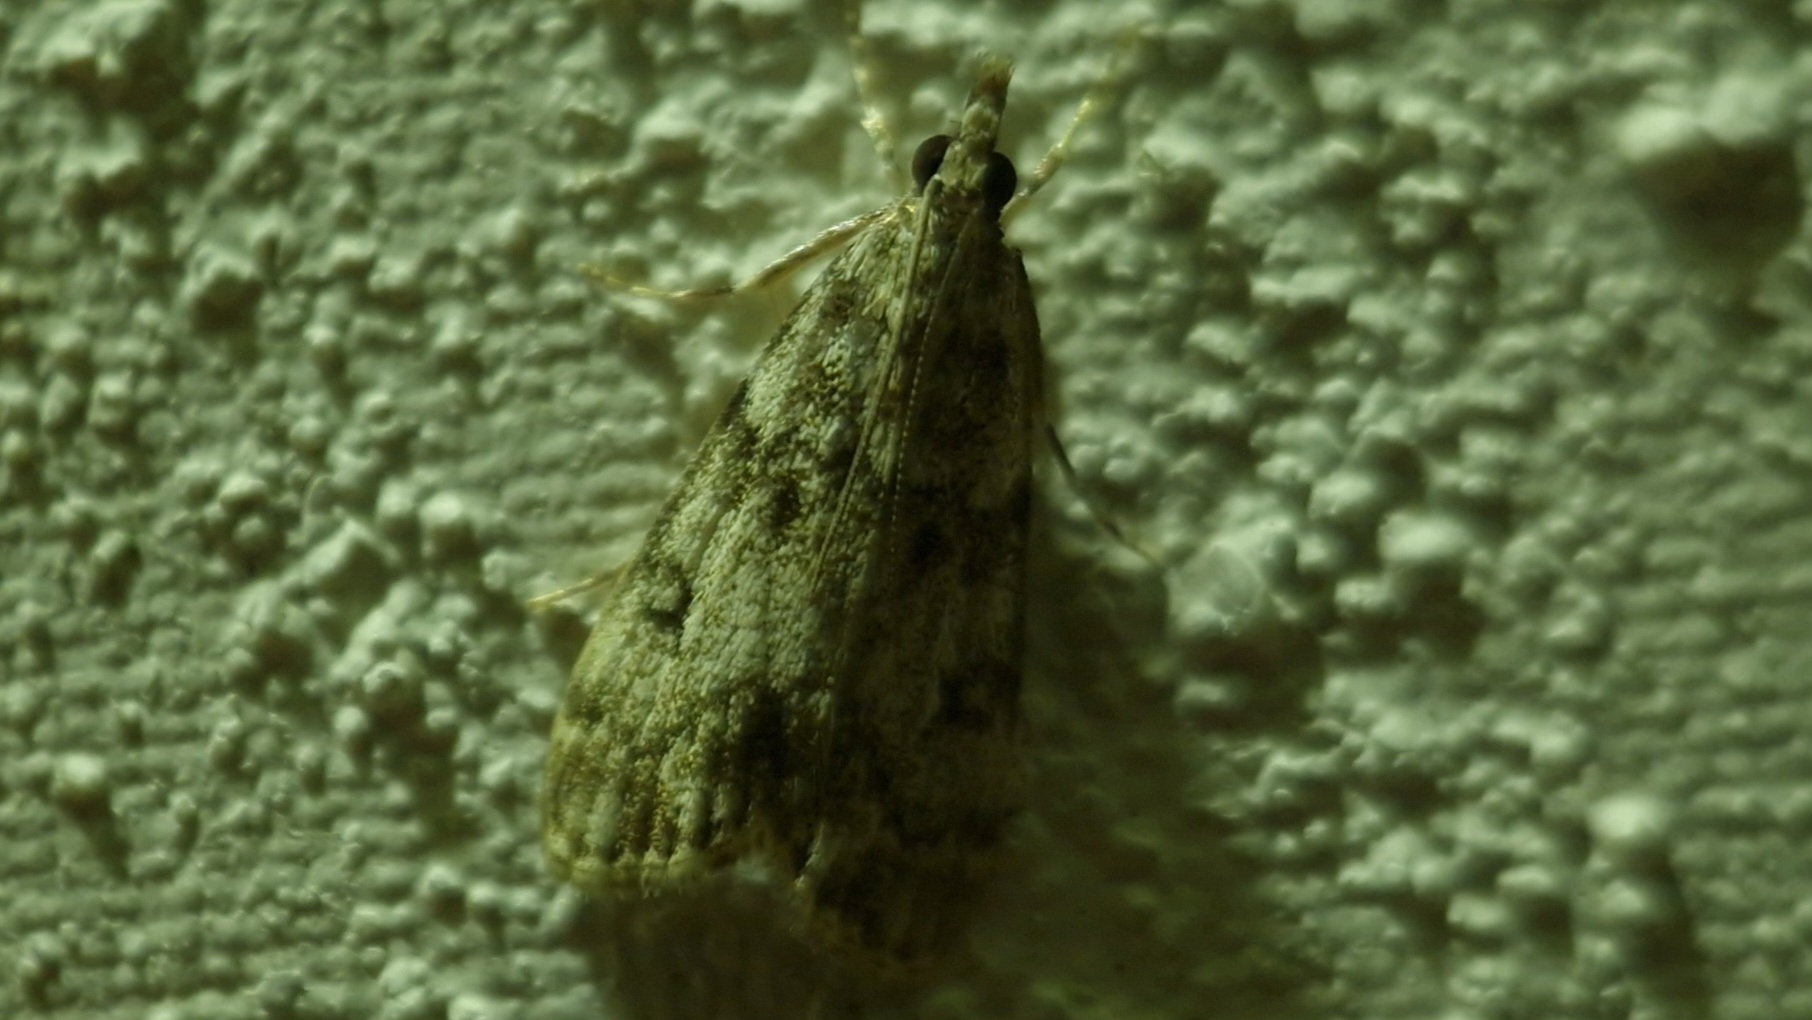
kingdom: Animalia
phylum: Arthropoda
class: Insecta
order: Lepidoptera
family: Crambidae
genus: Eudonia
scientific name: Eudonia lacustrata
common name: Little grey
